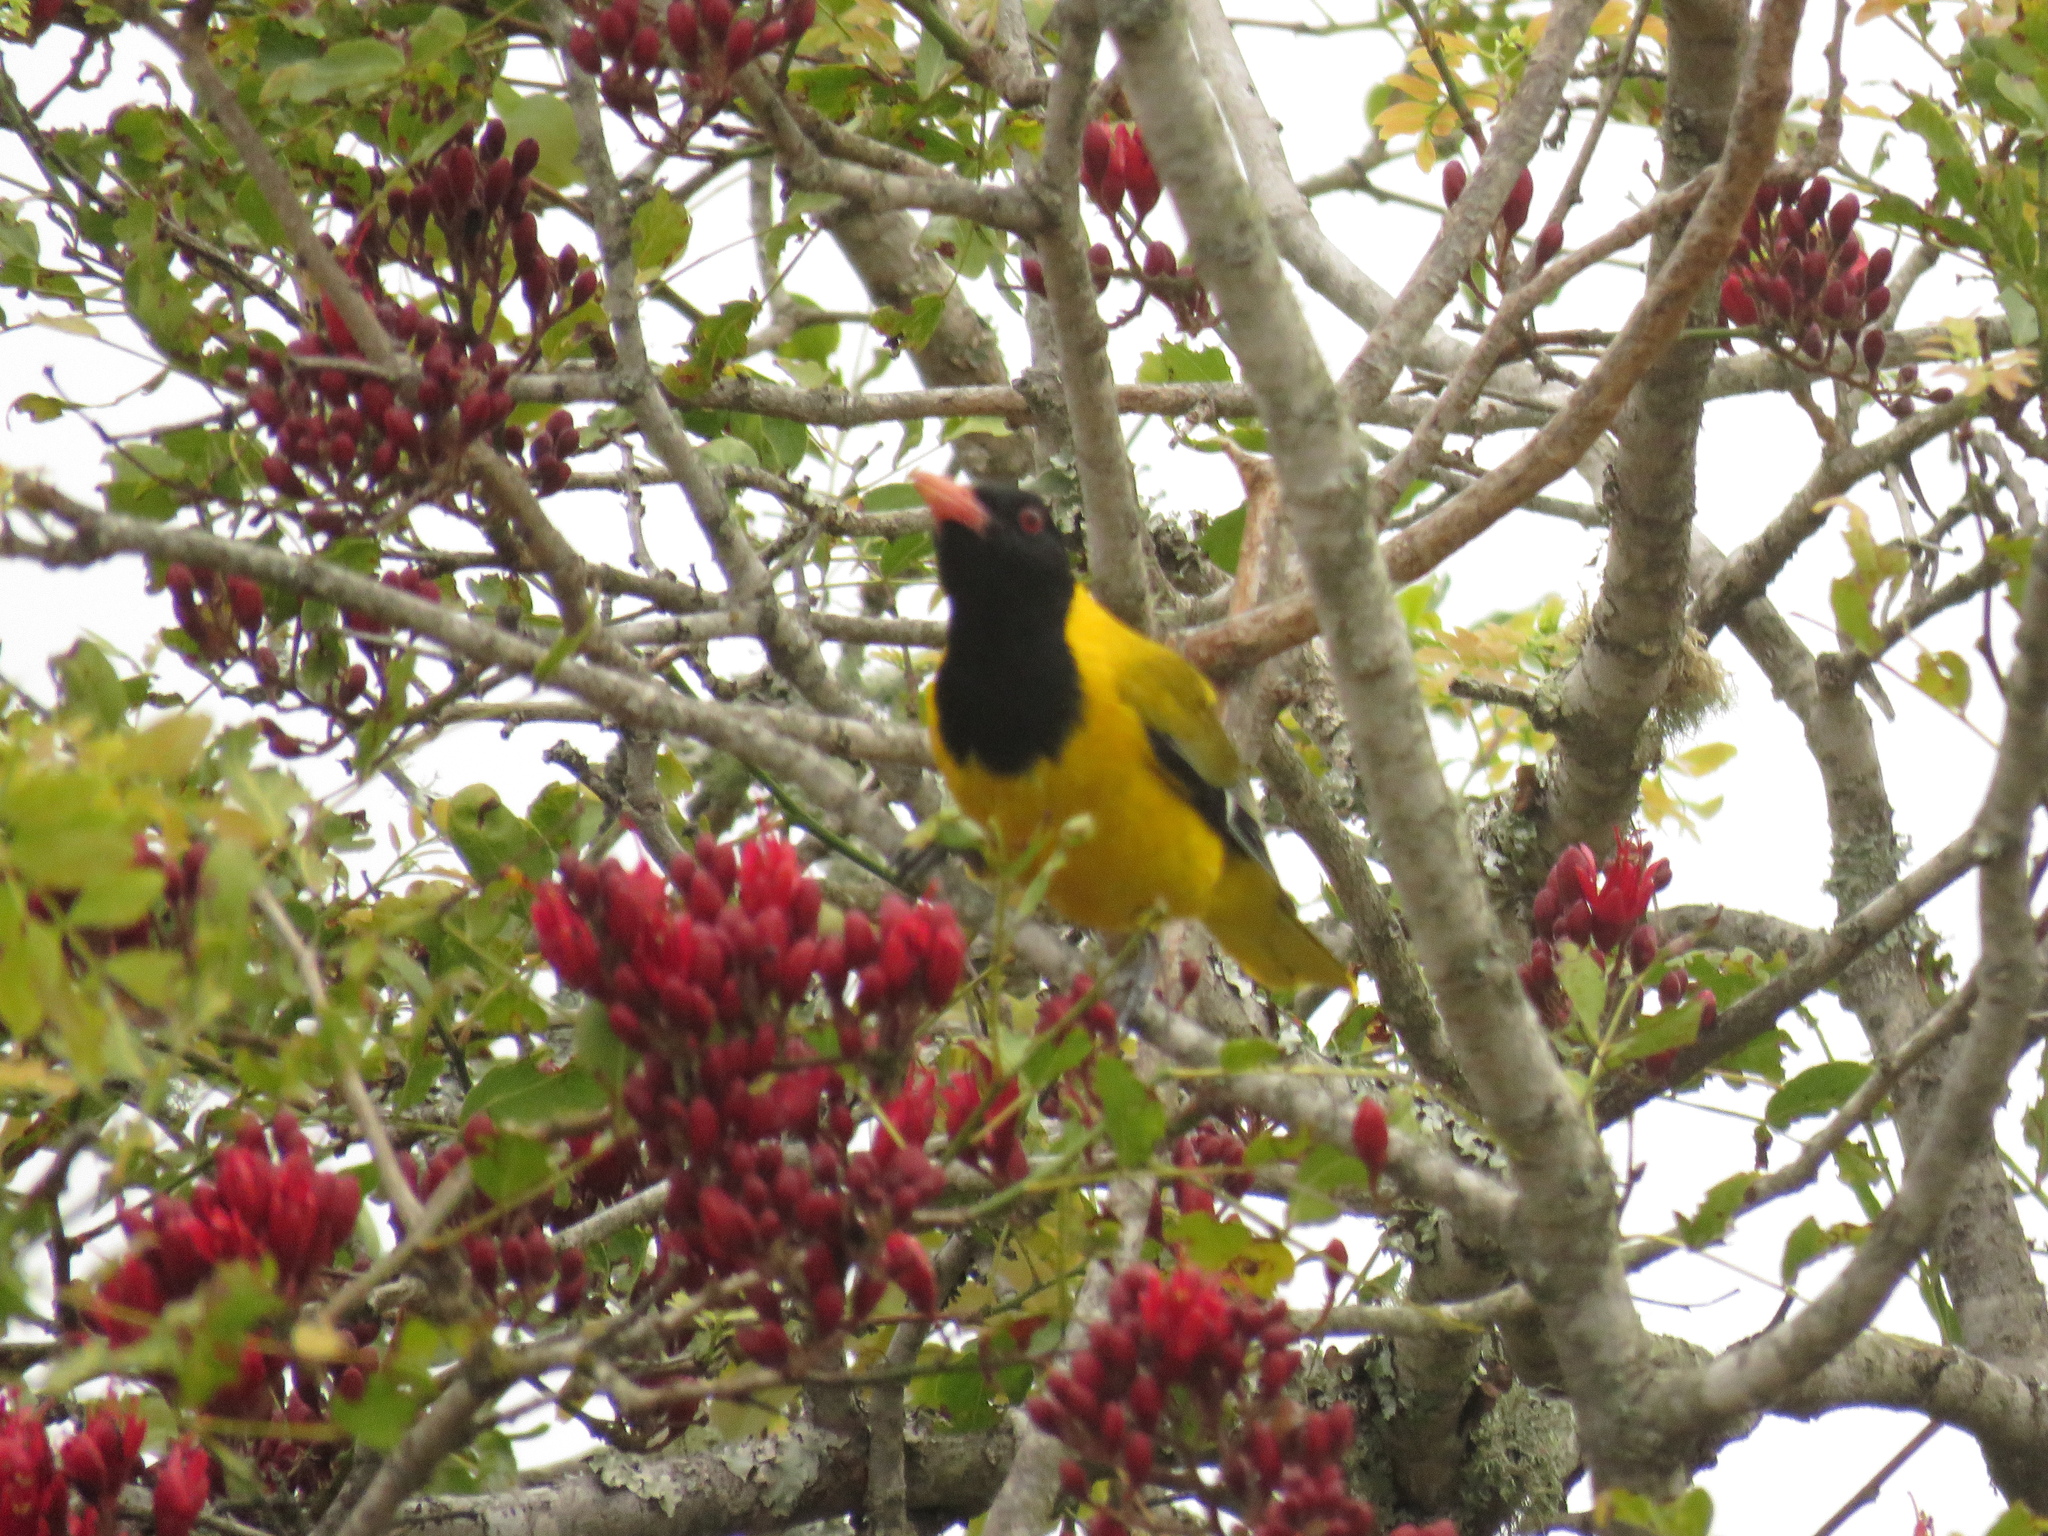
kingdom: Animalia
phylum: Chordata
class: Aves
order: Passeriformes
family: Oriolidae
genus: Oriolus
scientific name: Oriolus larvatus
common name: Black-headed oriole
